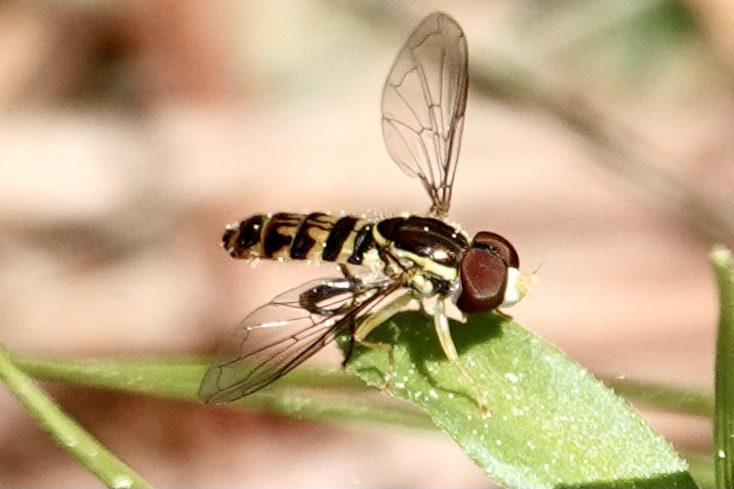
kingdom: Animalia
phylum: Arthropoda
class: Insecta
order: Diptera
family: Syrphidae
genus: Toxomerus
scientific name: Toxomerus geminatus
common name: Eastern calligrapher
